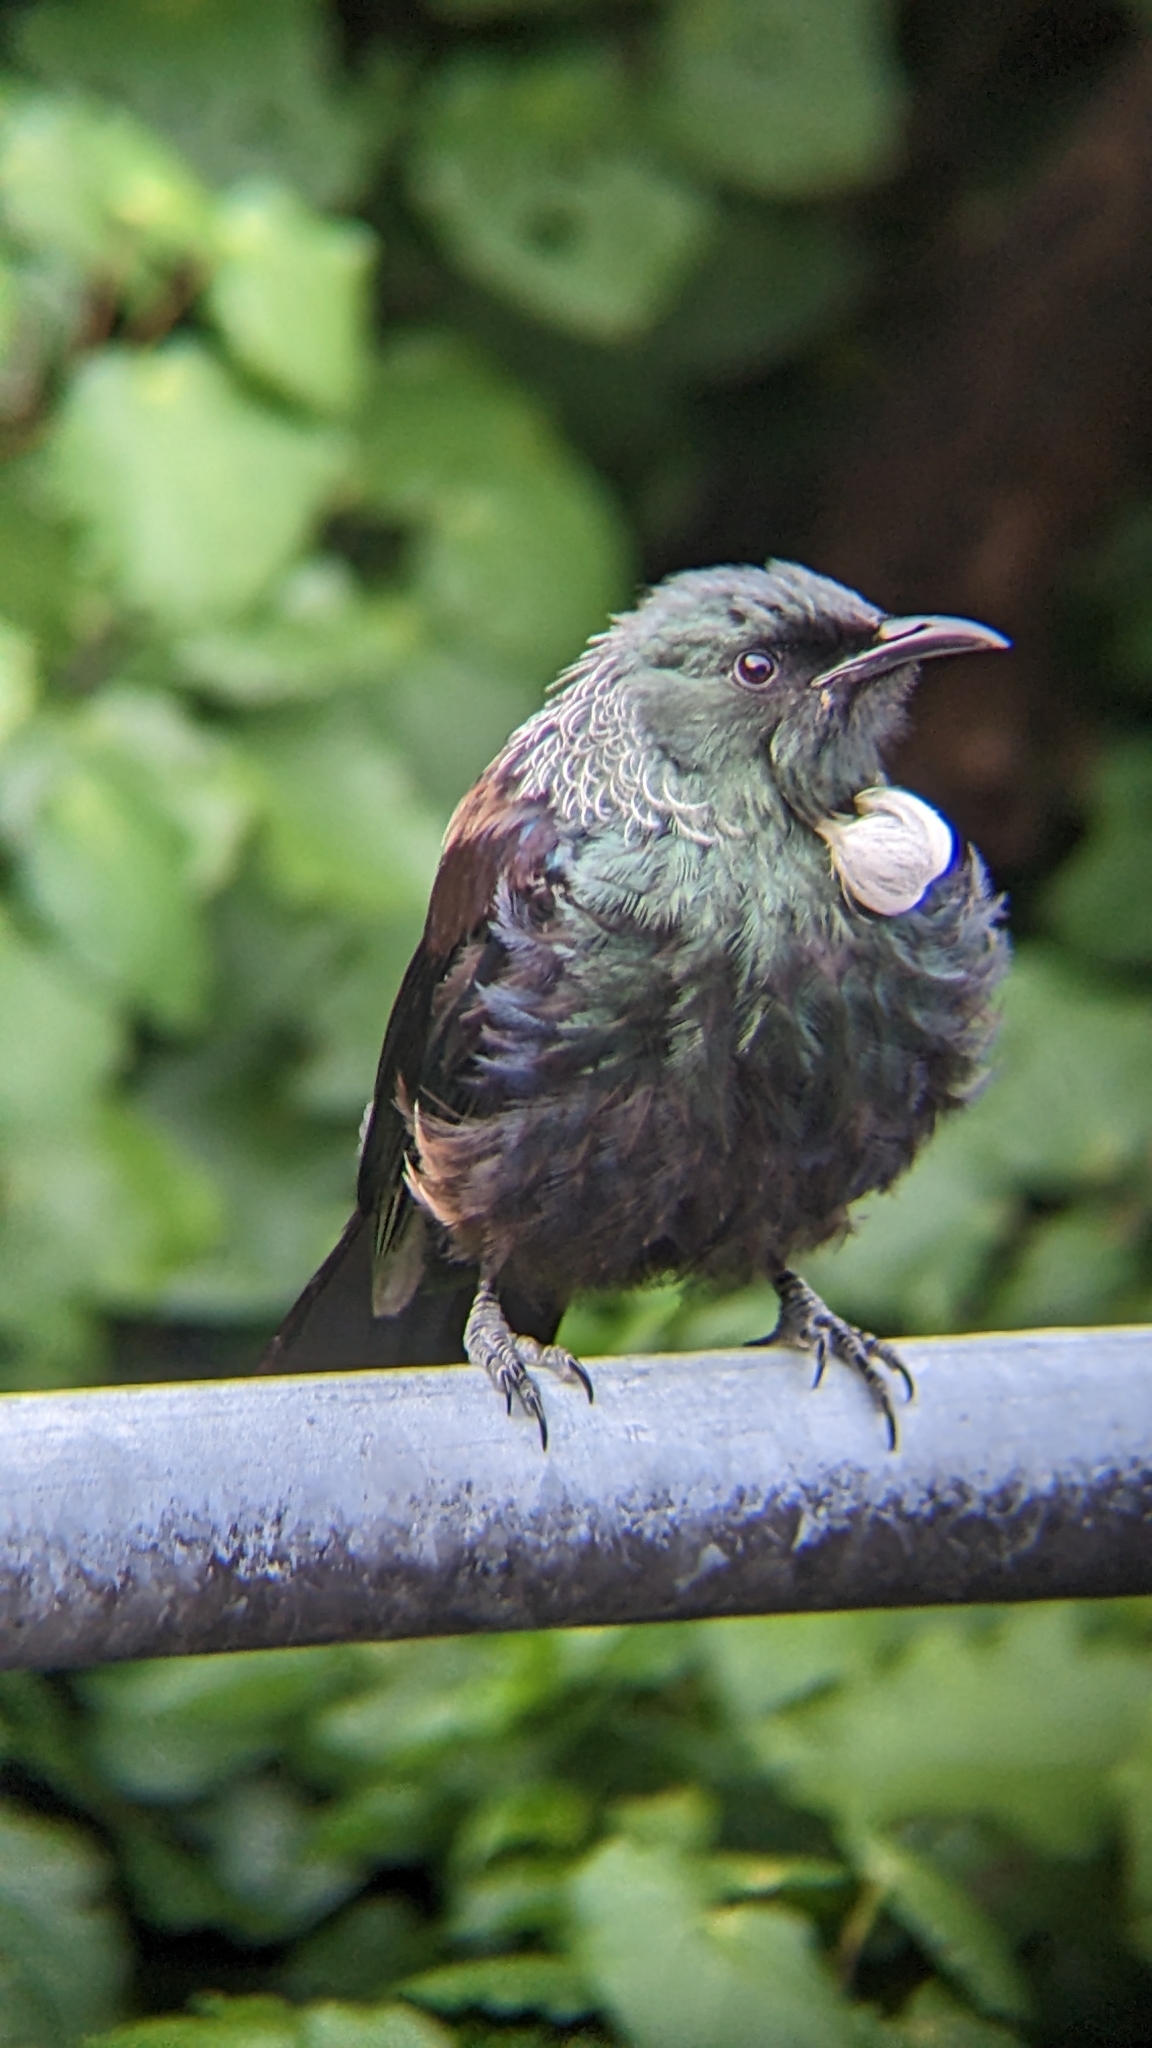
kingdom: Animalia
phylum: Chordata
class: Aves
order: Passeriformes
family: Meliphagidae
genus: Prosthemadera
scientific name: Prosthemadera novaeseelandiae
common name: Tui
